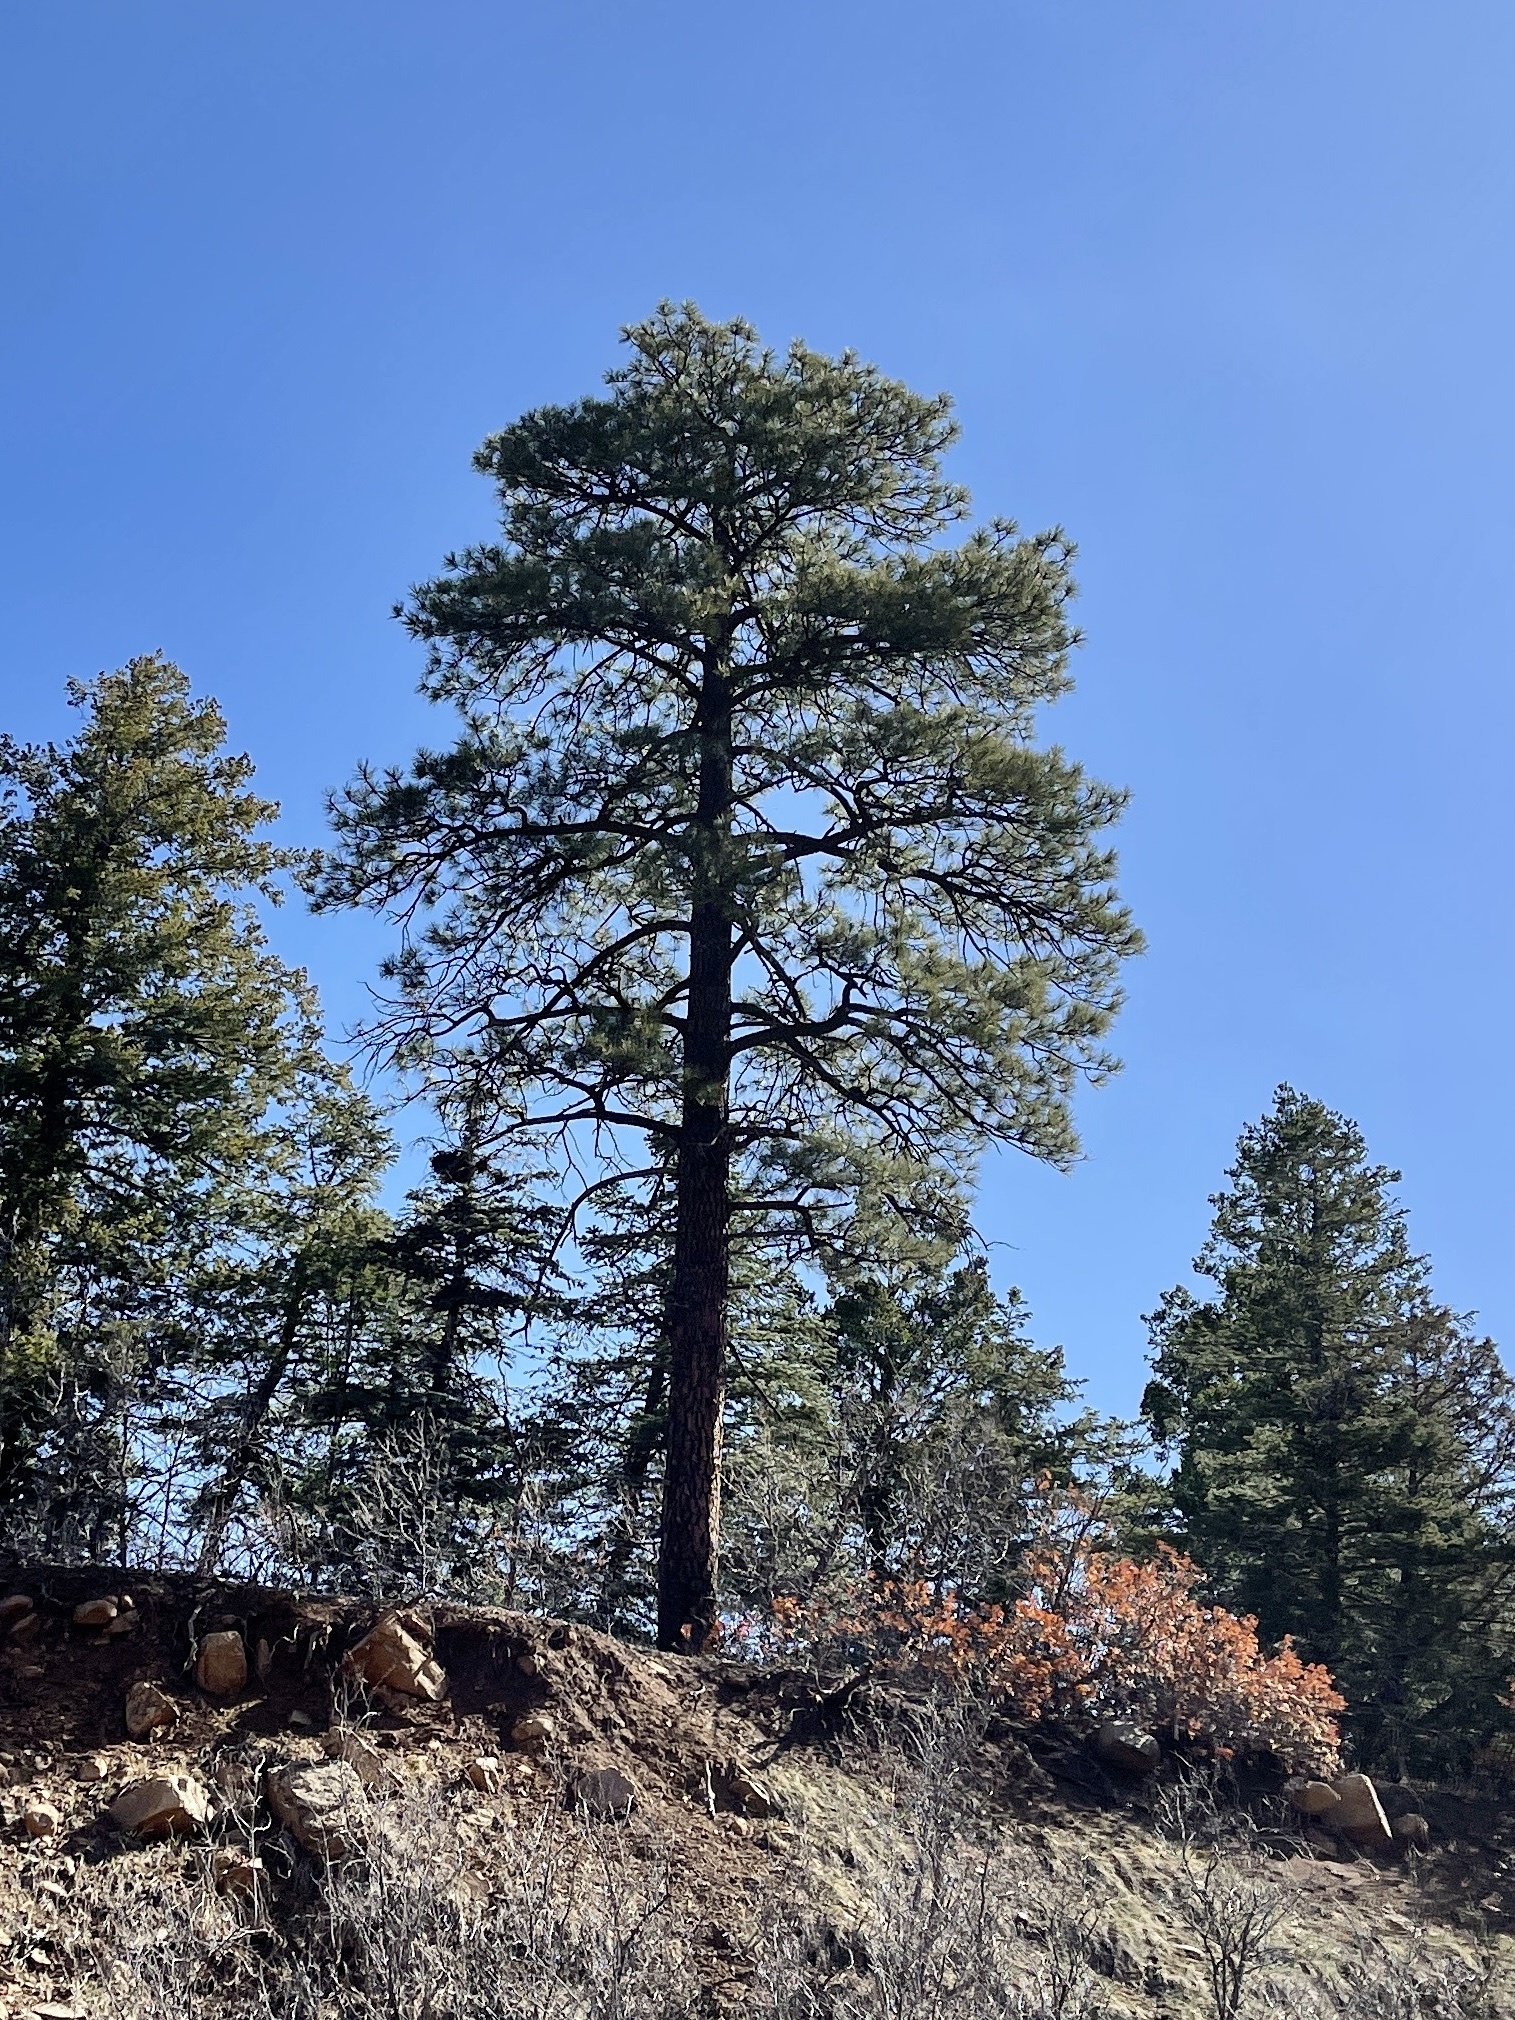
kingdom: Plantae
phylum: Tracheophyta
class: Pinopsida
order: Pinales
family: Pinaceae
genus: Pinus
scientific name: Pinus ponderosa
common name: Western yellow-pine
